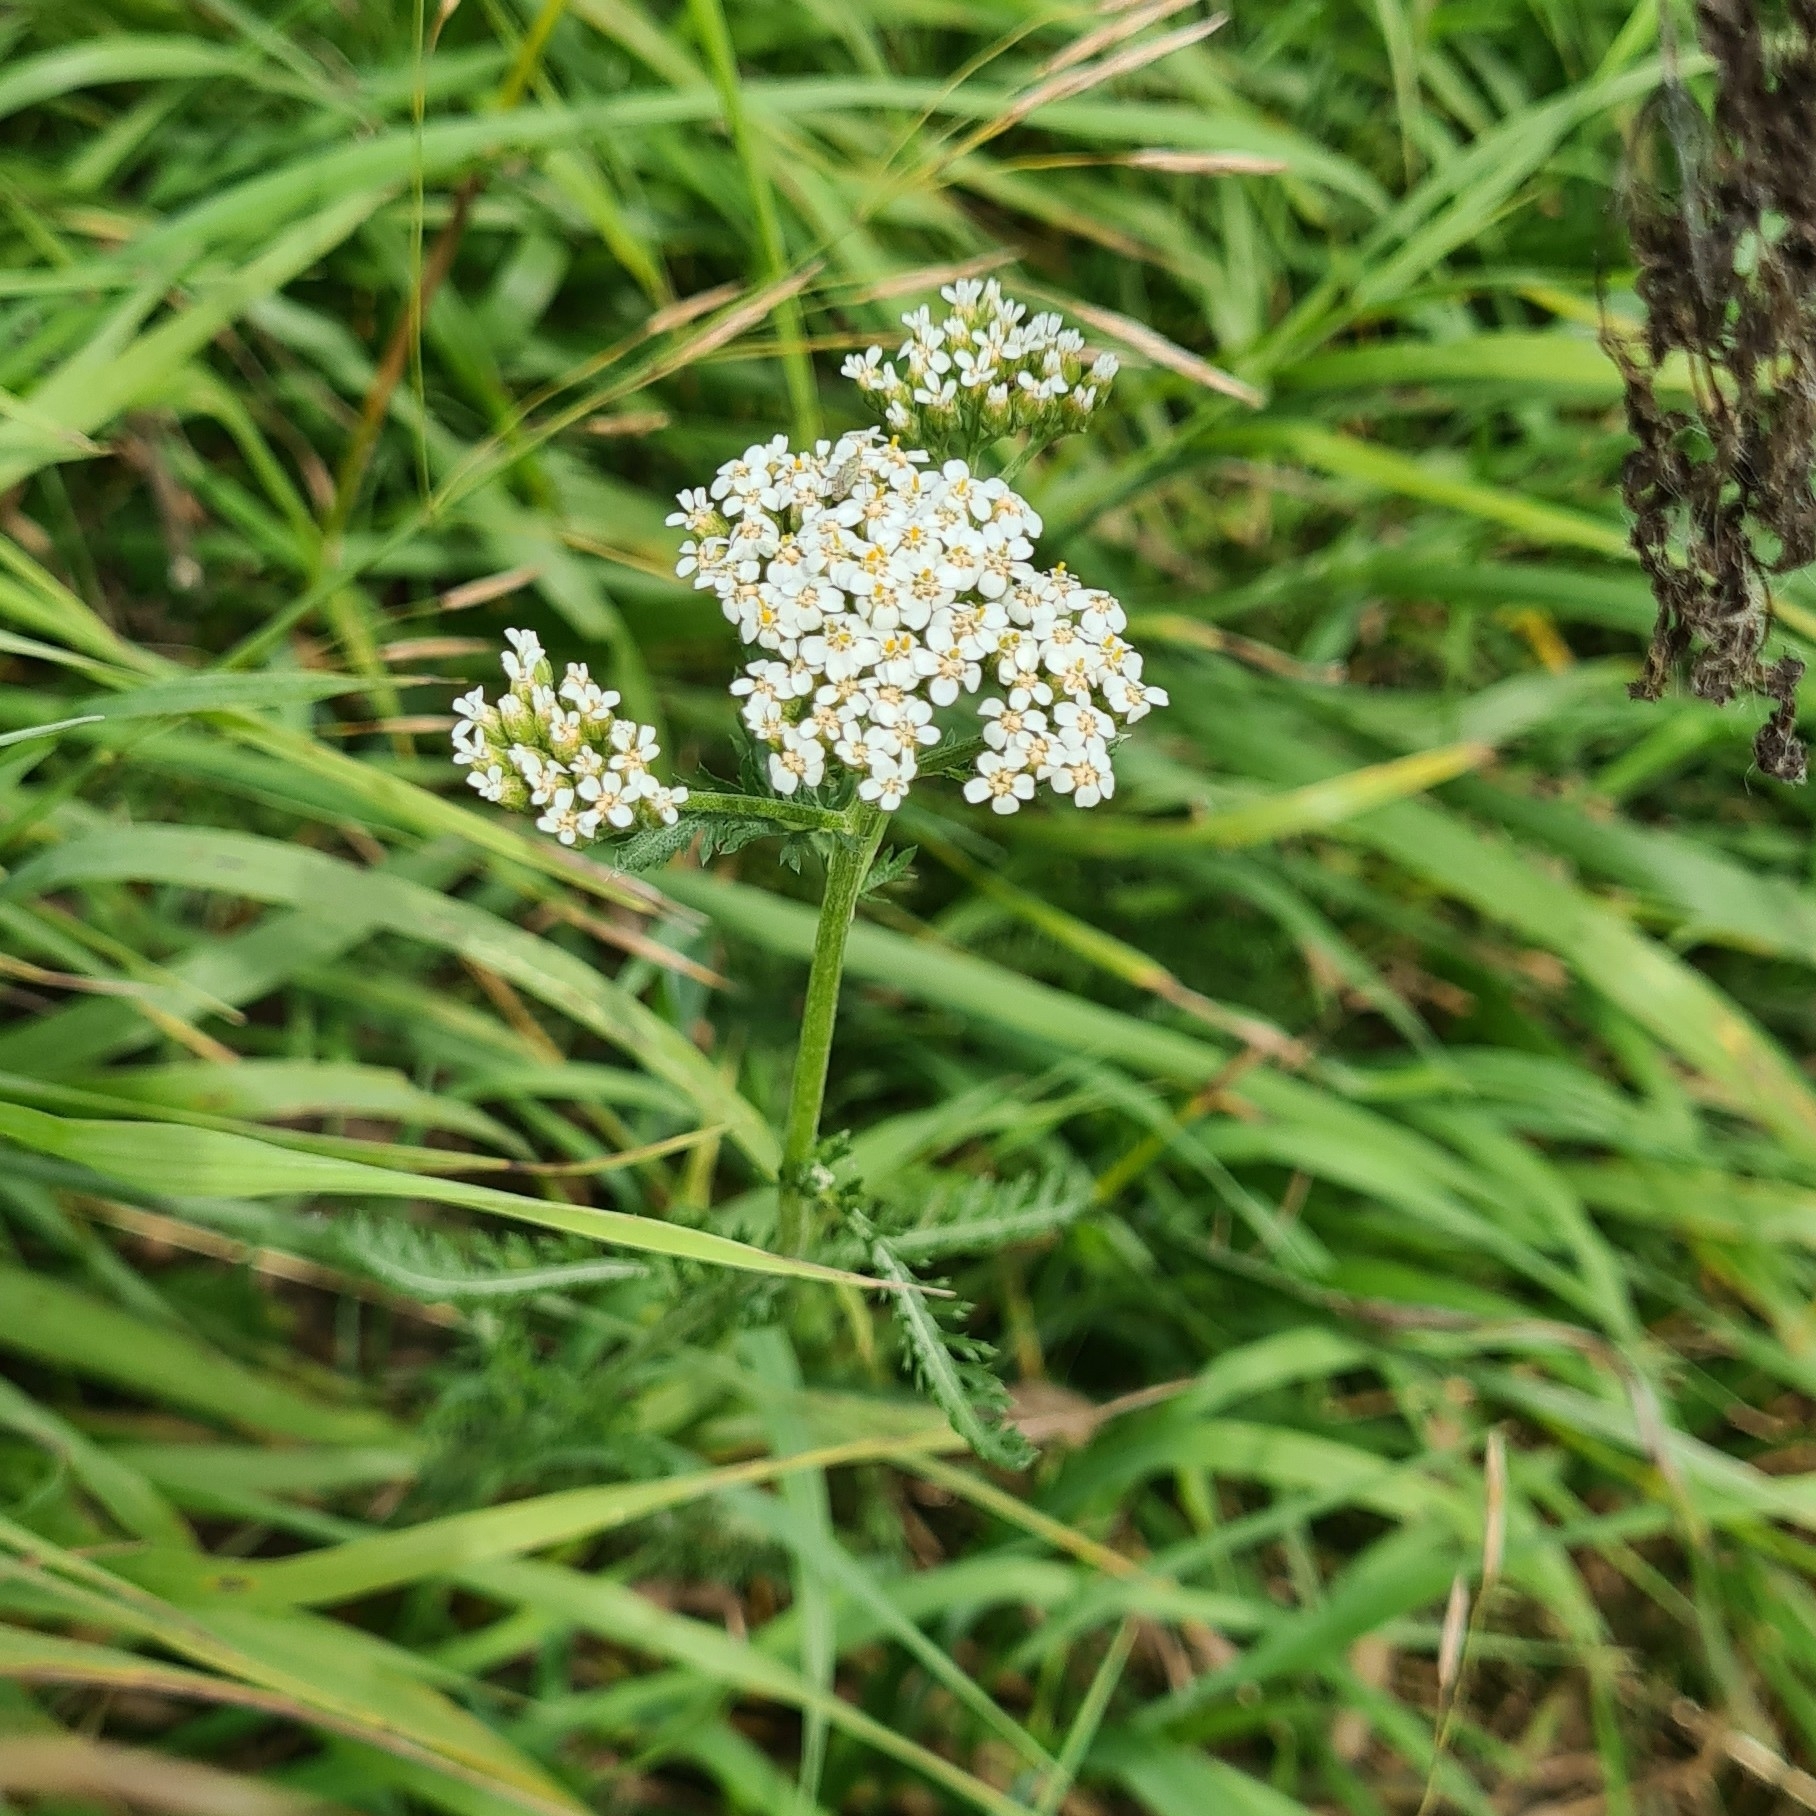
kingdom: Plantae
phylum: Tracheophyta
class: Magnoliopsida
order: Asterales
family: Asteraceae
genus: Achillea
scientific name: Achillea millefolium
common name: Yarrow
